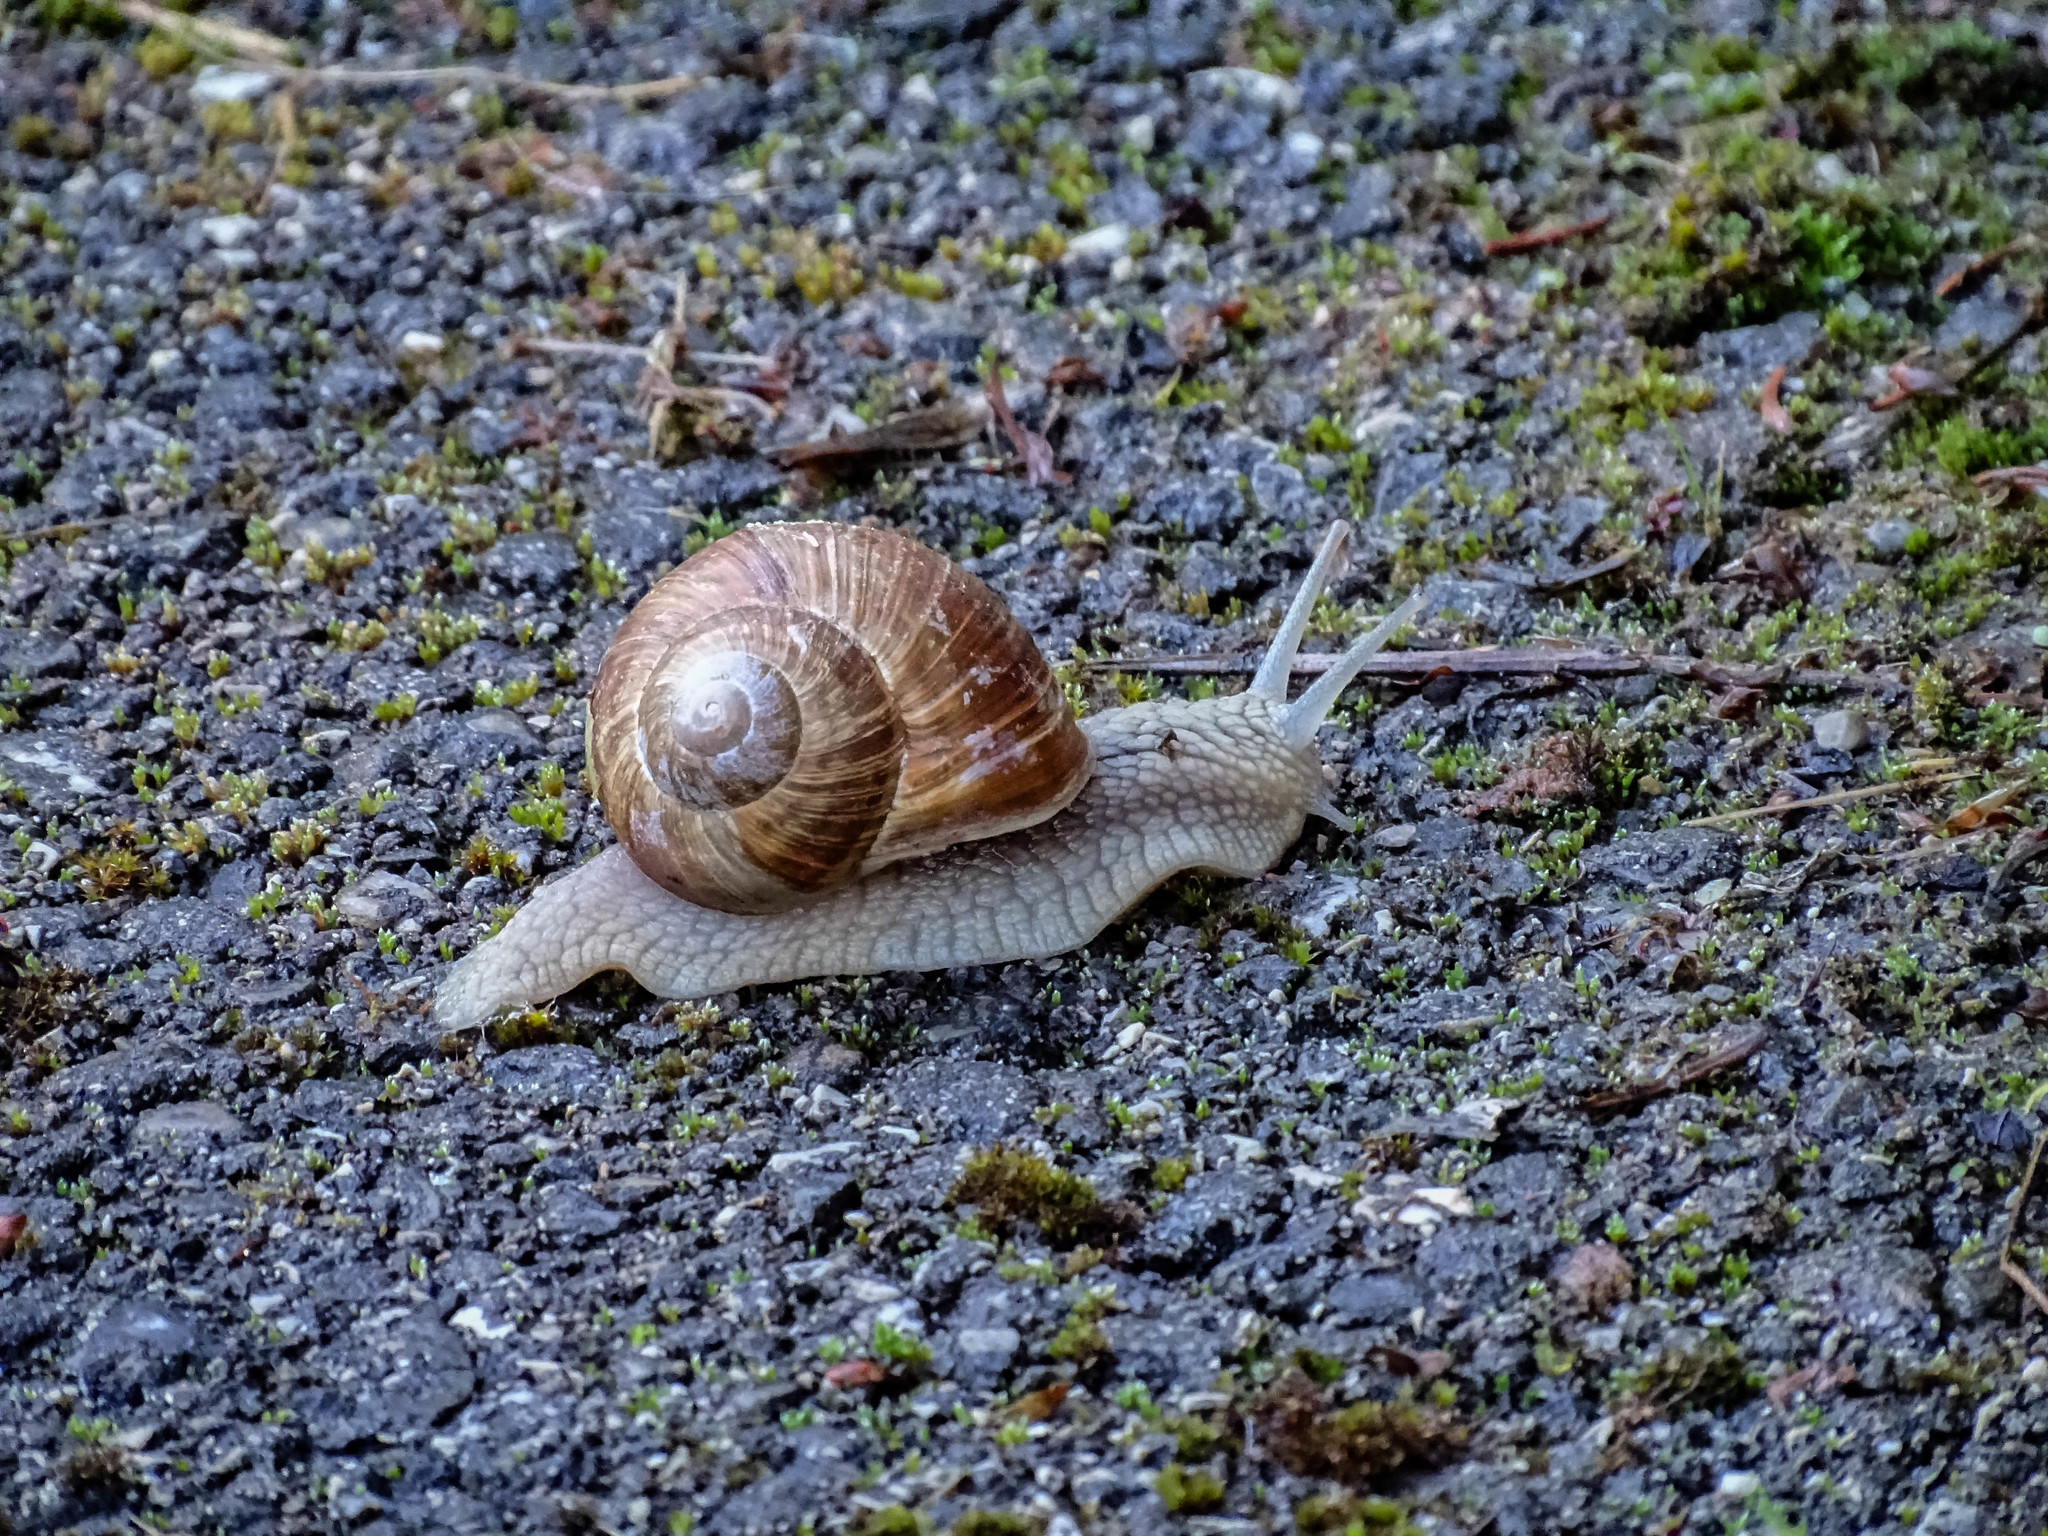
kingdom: Animalia
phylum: Mollusca
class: Gastropoda
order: Stylommatophora
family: Helicidae
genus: Helix
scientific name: Helix pomatia
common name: Roman snail
